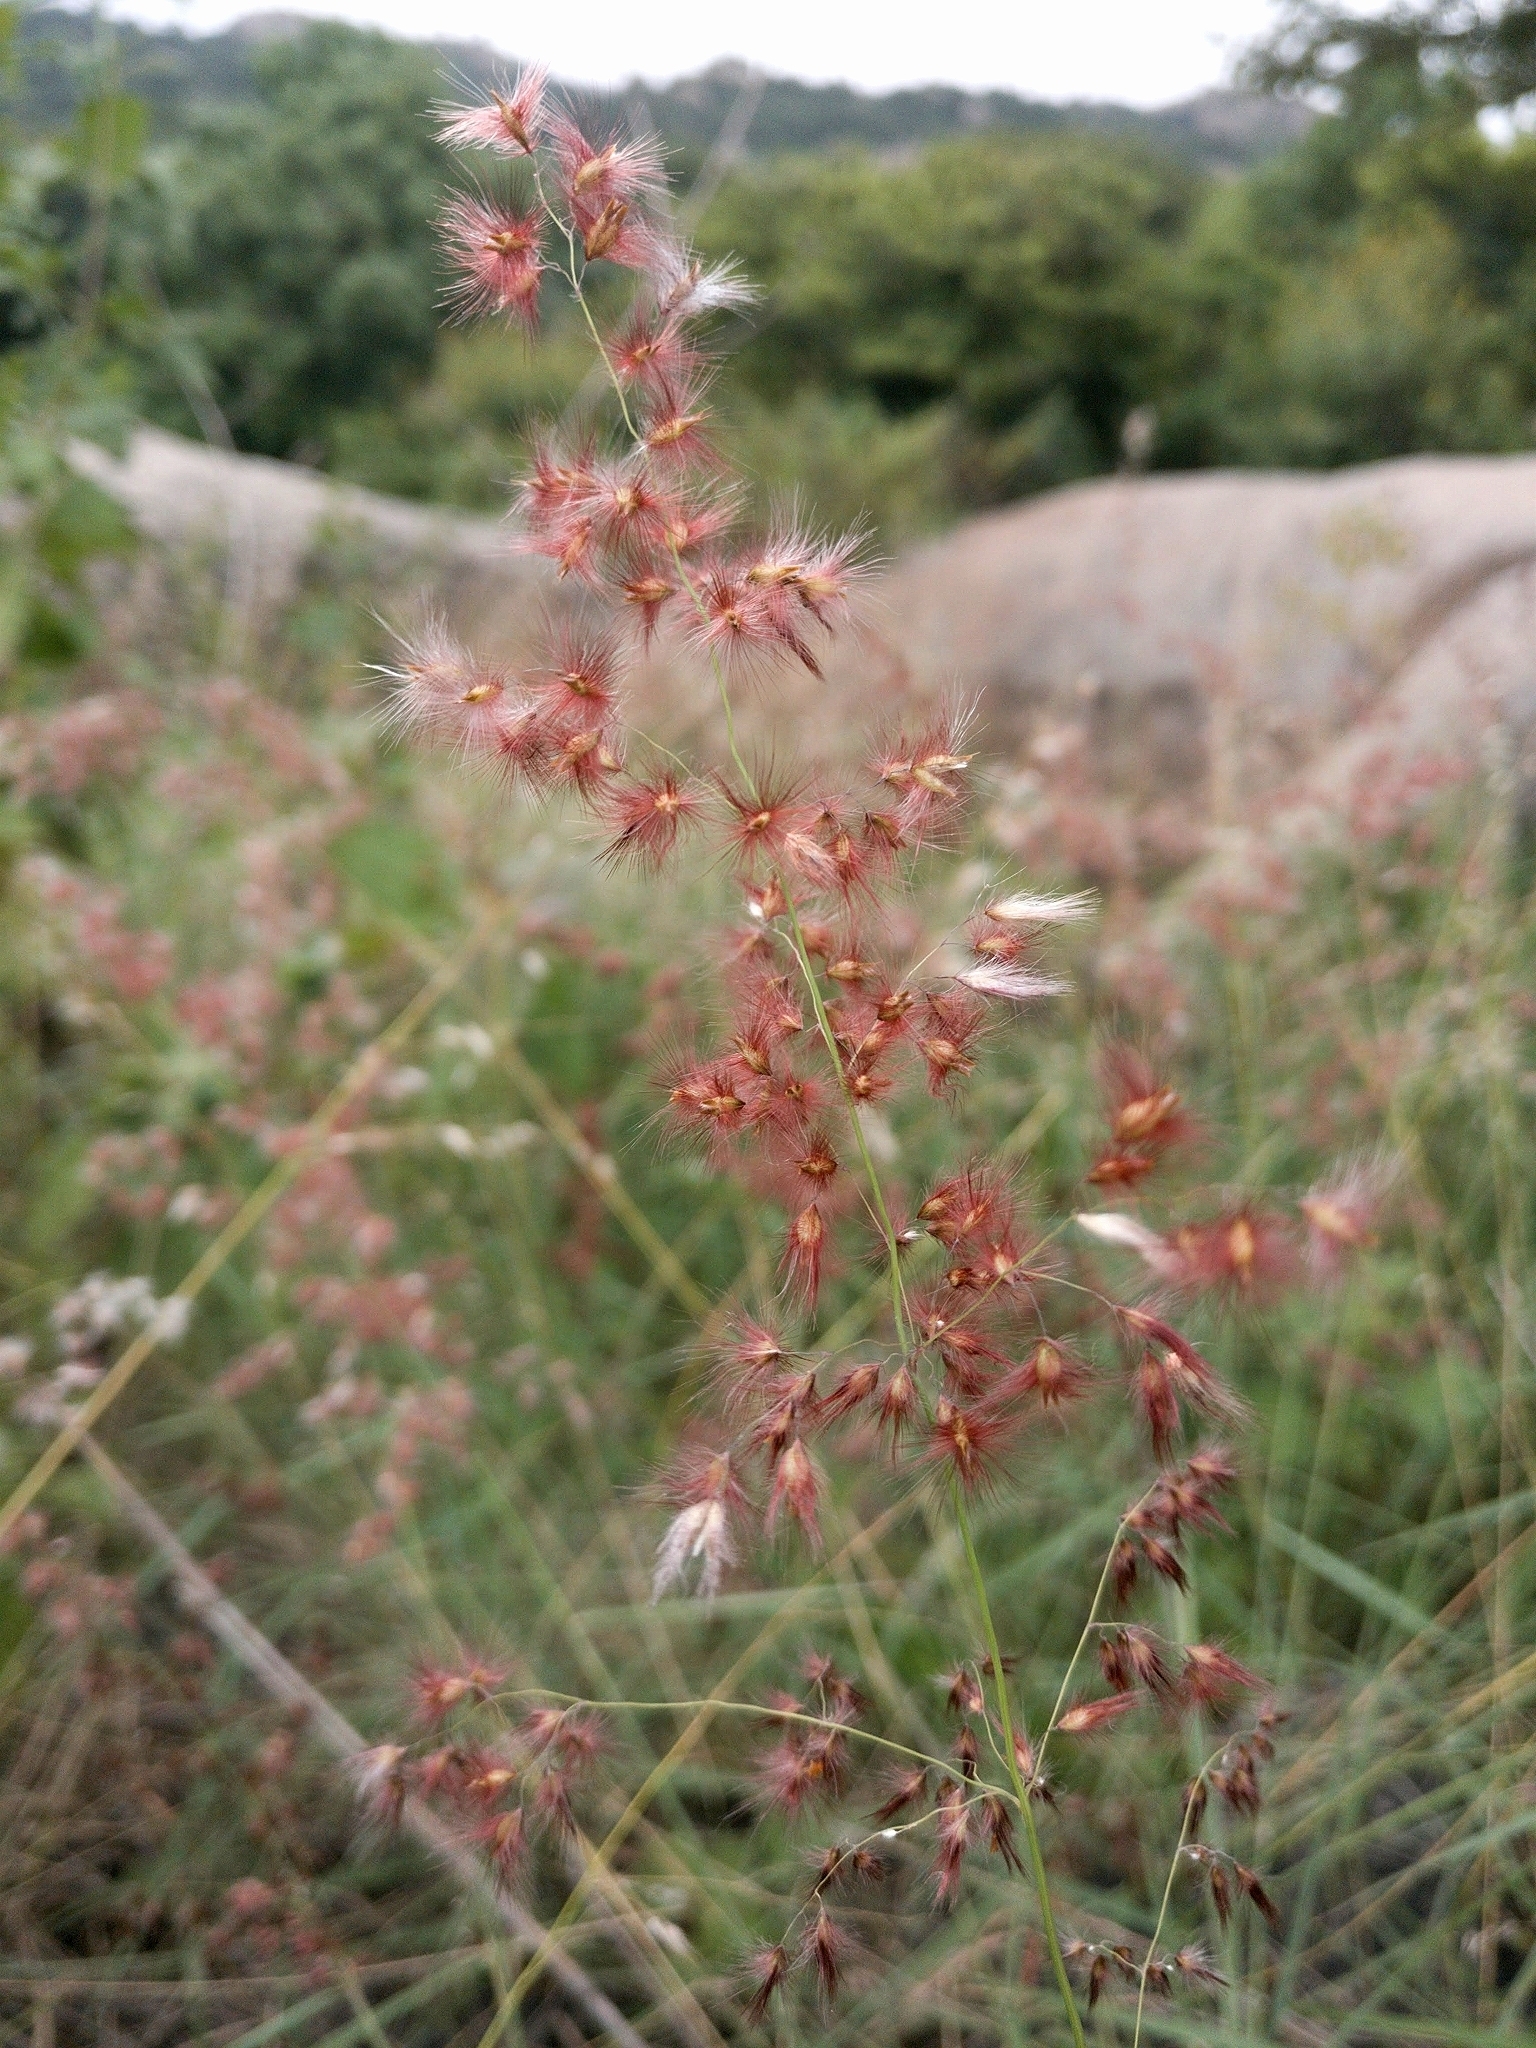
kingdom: Plantae
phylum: Tracheophyta
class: Liliopsida
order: Poales
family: Poaceae
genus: Melinis
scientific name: Melinis repens
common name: Rose natal grass
